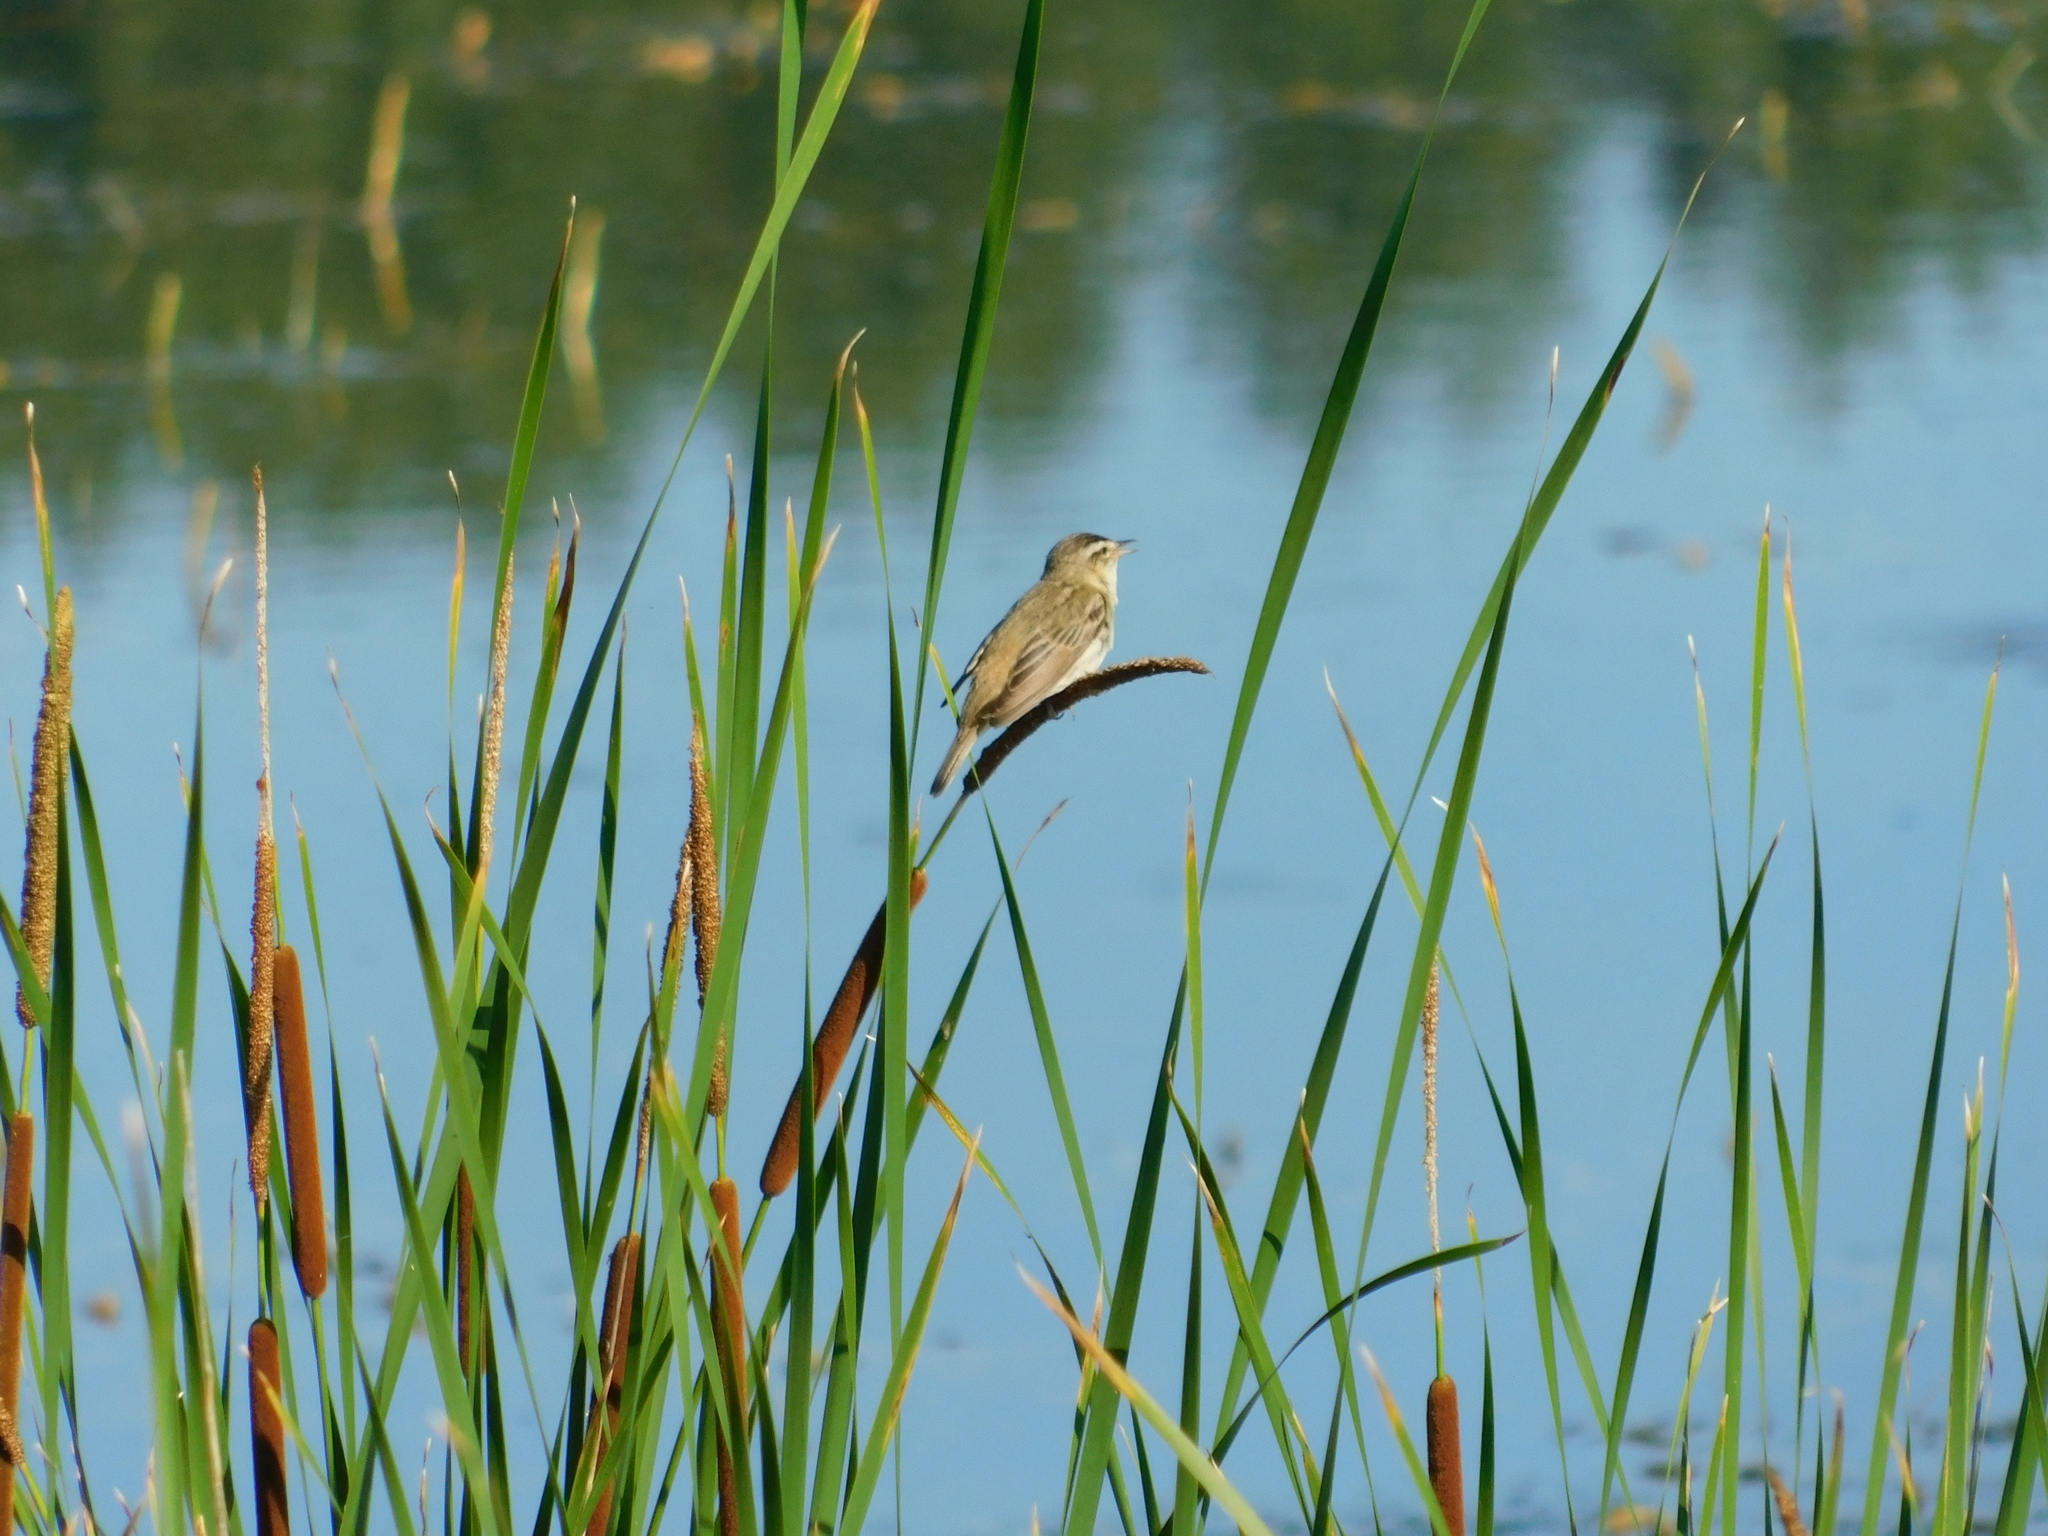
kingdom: Animalia
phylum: Chordata
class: Aves
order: Passeriformes
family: Acrocephalidae
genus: Acrocephalus
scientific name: Acrocephalus schoenobaenus
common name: Sedge warbler
